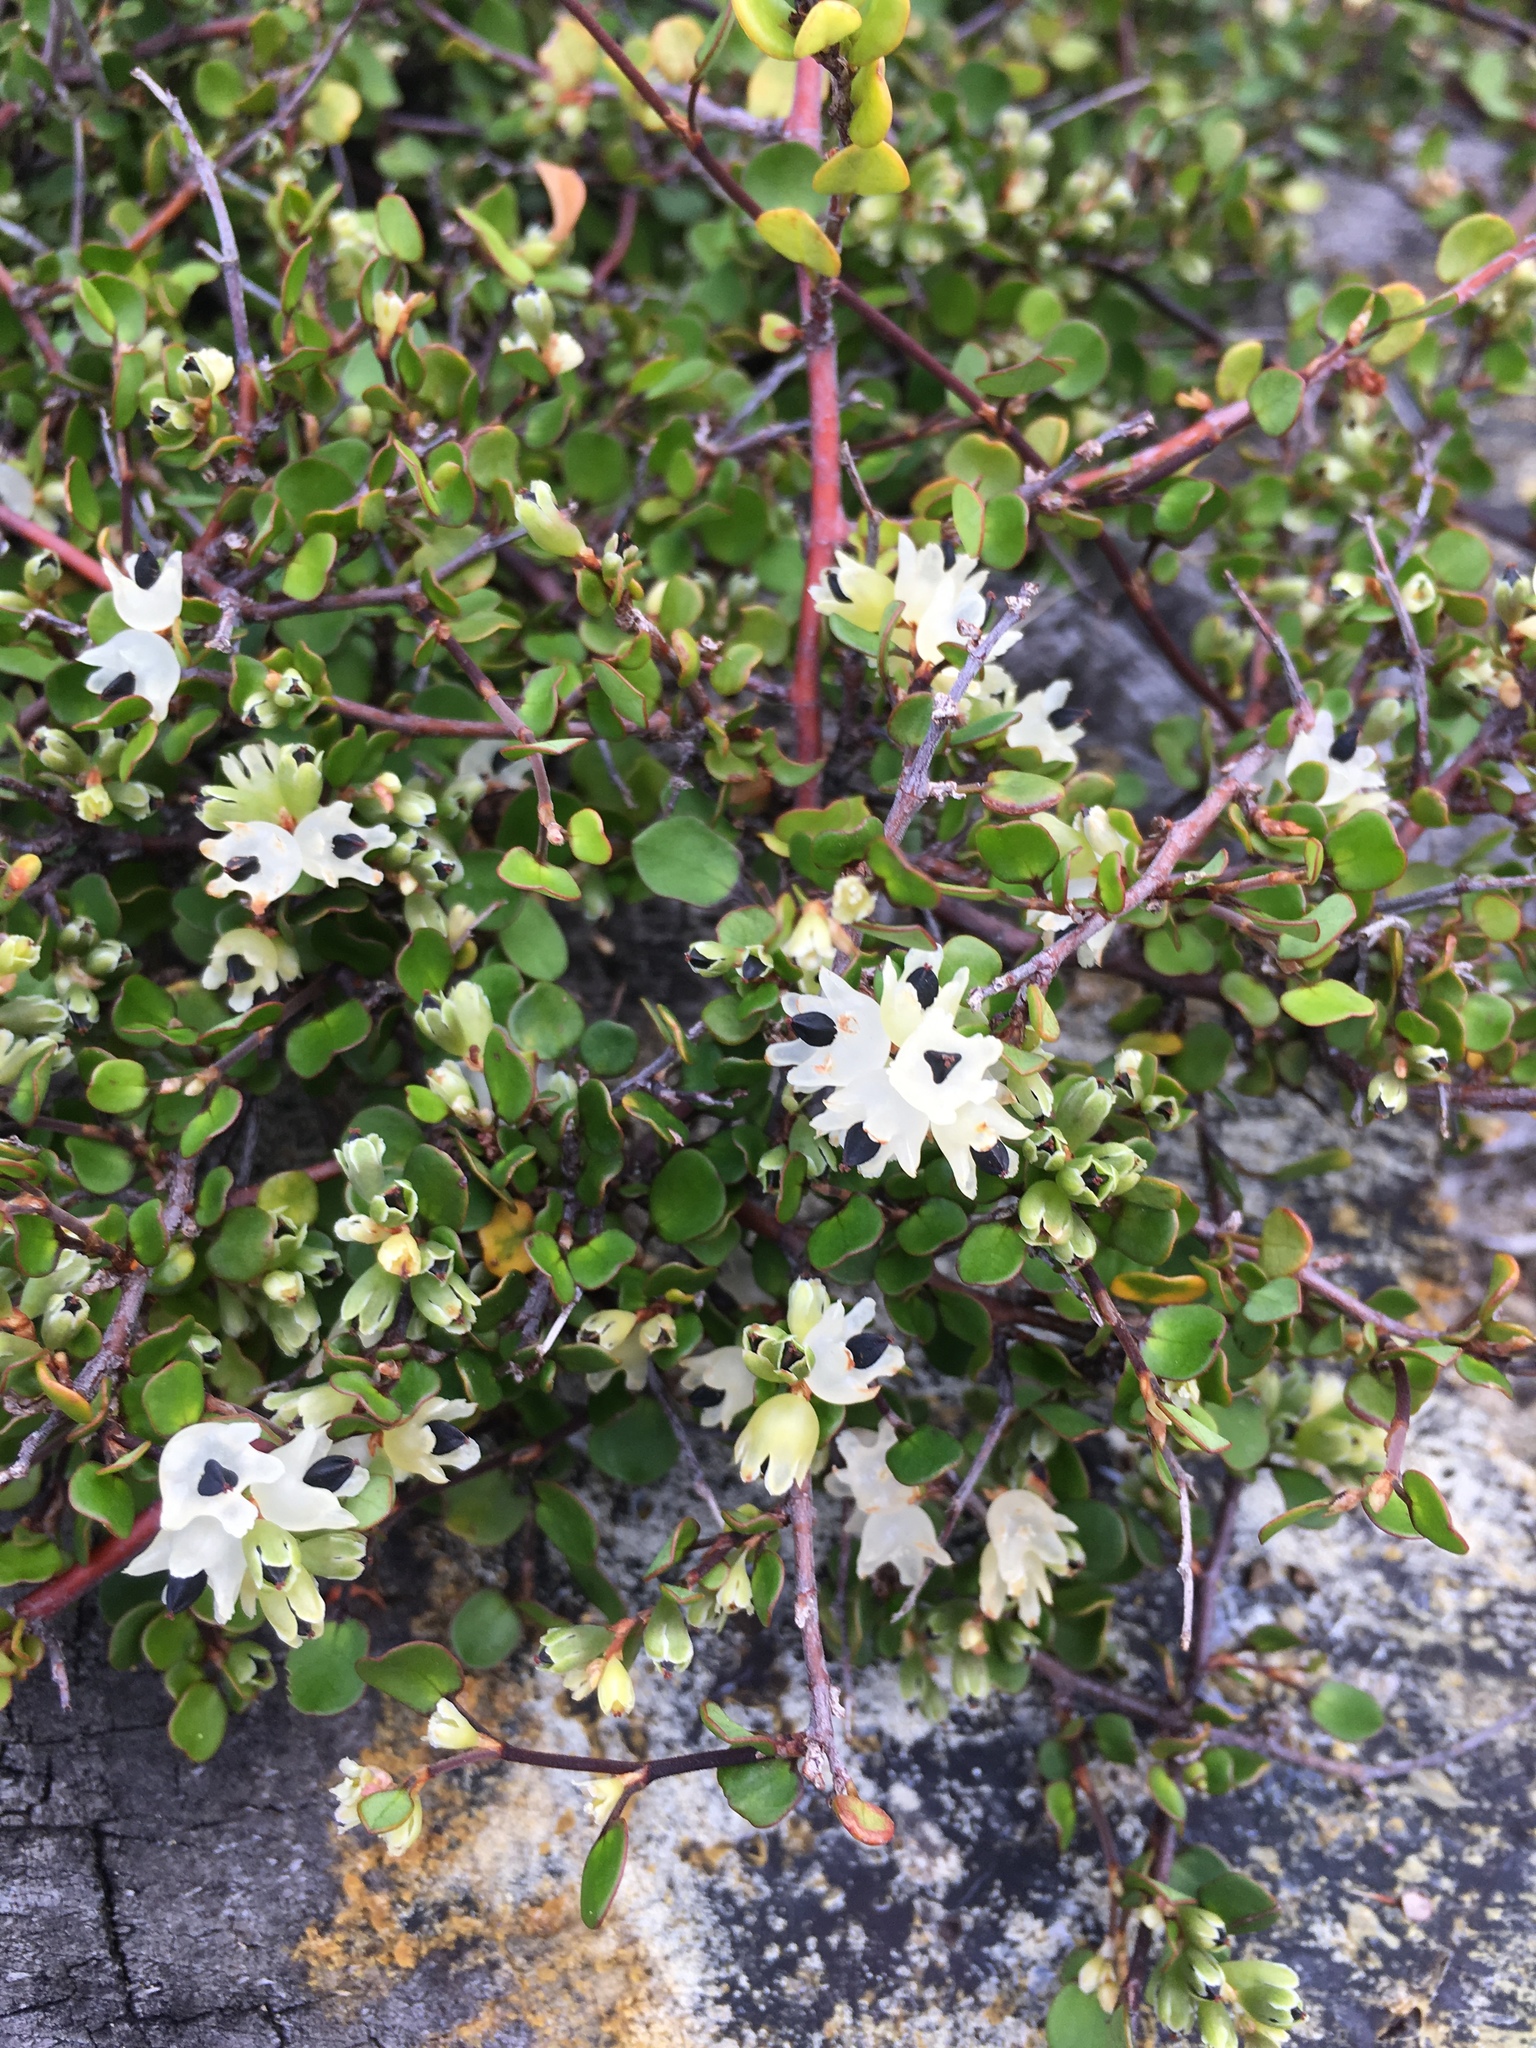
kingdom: Plantae
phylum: Tracheophyta
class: Magnoliopsida
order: Caryophyllales
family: Polygonaceae
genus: Muehlenbeckia
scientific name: Muehlenbeckia complexa
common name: Wireplant
